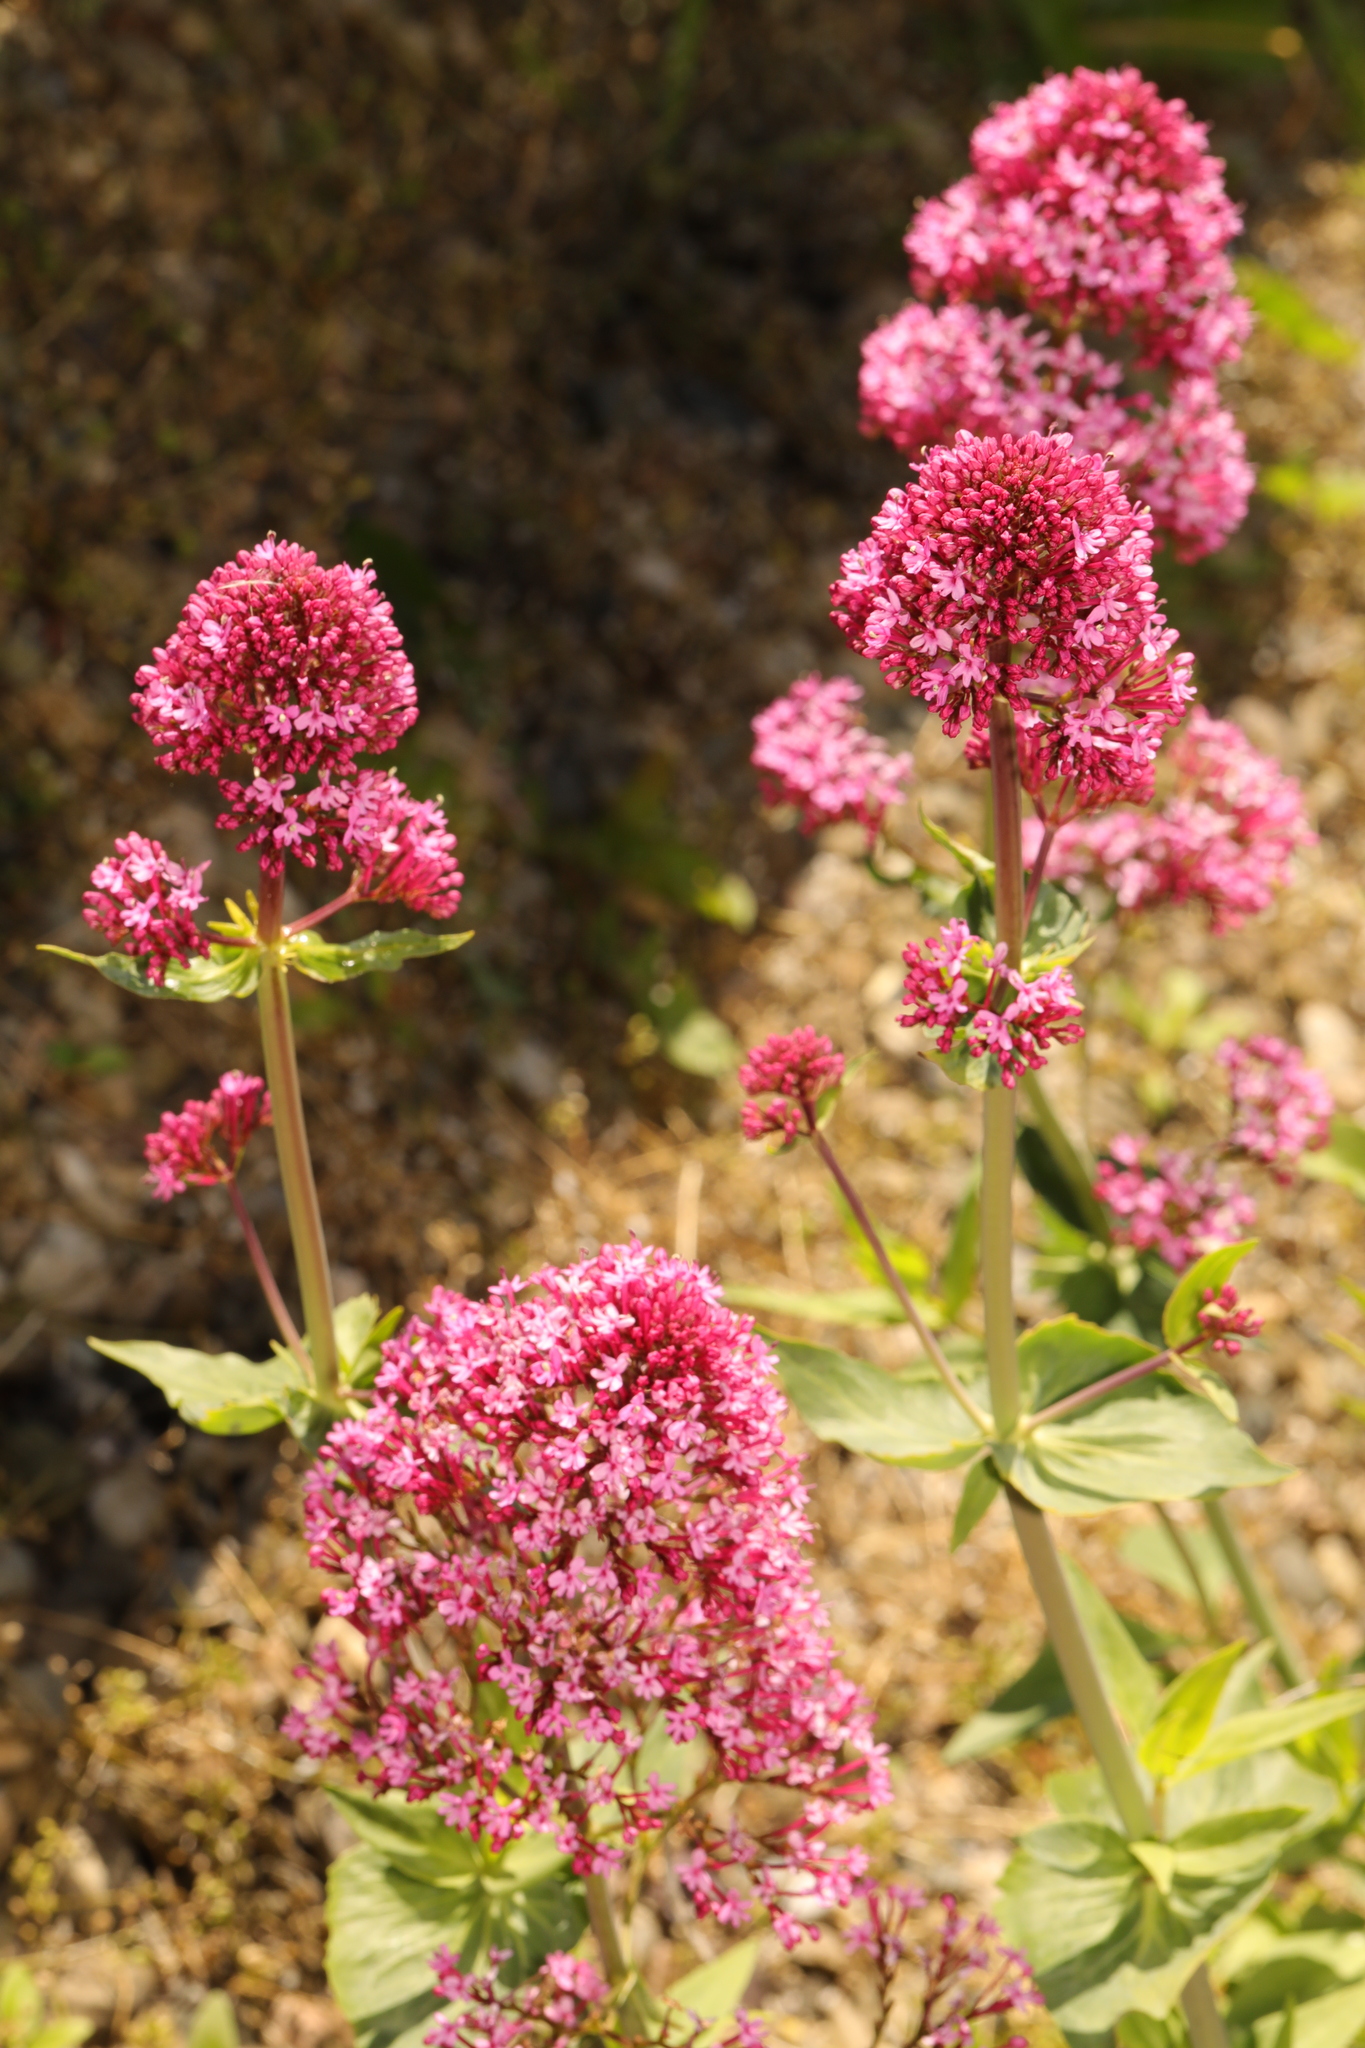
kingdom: Plantae
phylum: Tracheophyta
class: Magnoliopsida
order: Dipsacales
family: Caprifoliaceae
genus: Centranthus
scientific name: Centranthus ruber
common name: Red valerian
